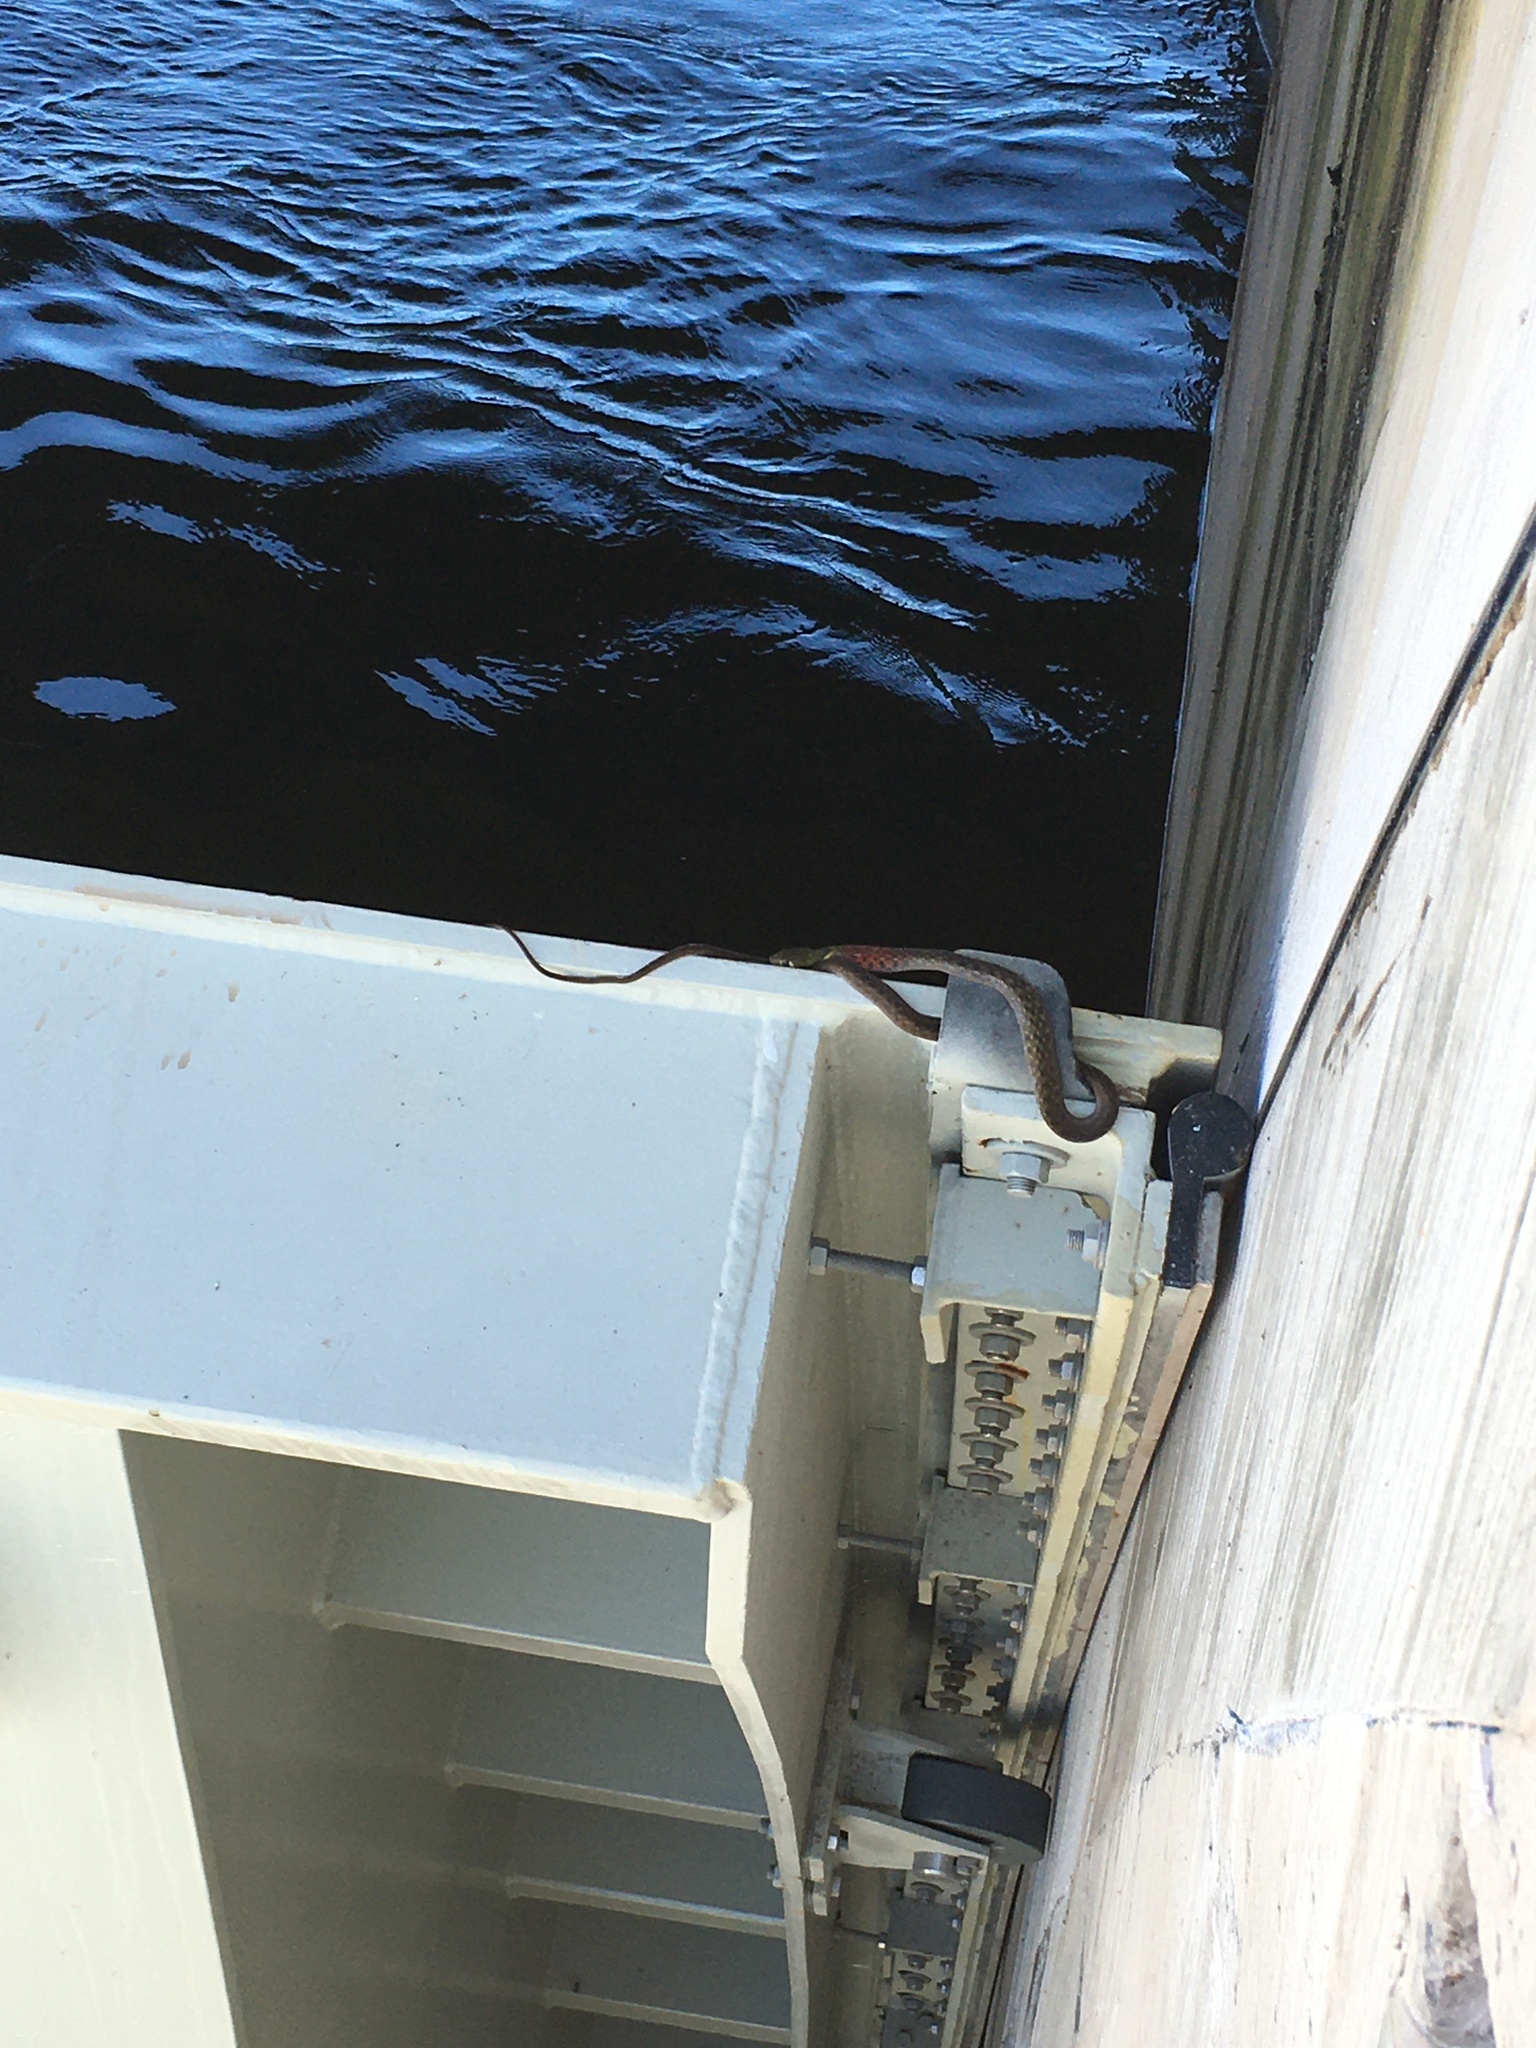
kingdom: Animalia
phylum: Chordata
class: Squamata
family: Colubridae
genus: Rhabdophis
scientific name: Rhabdophis
